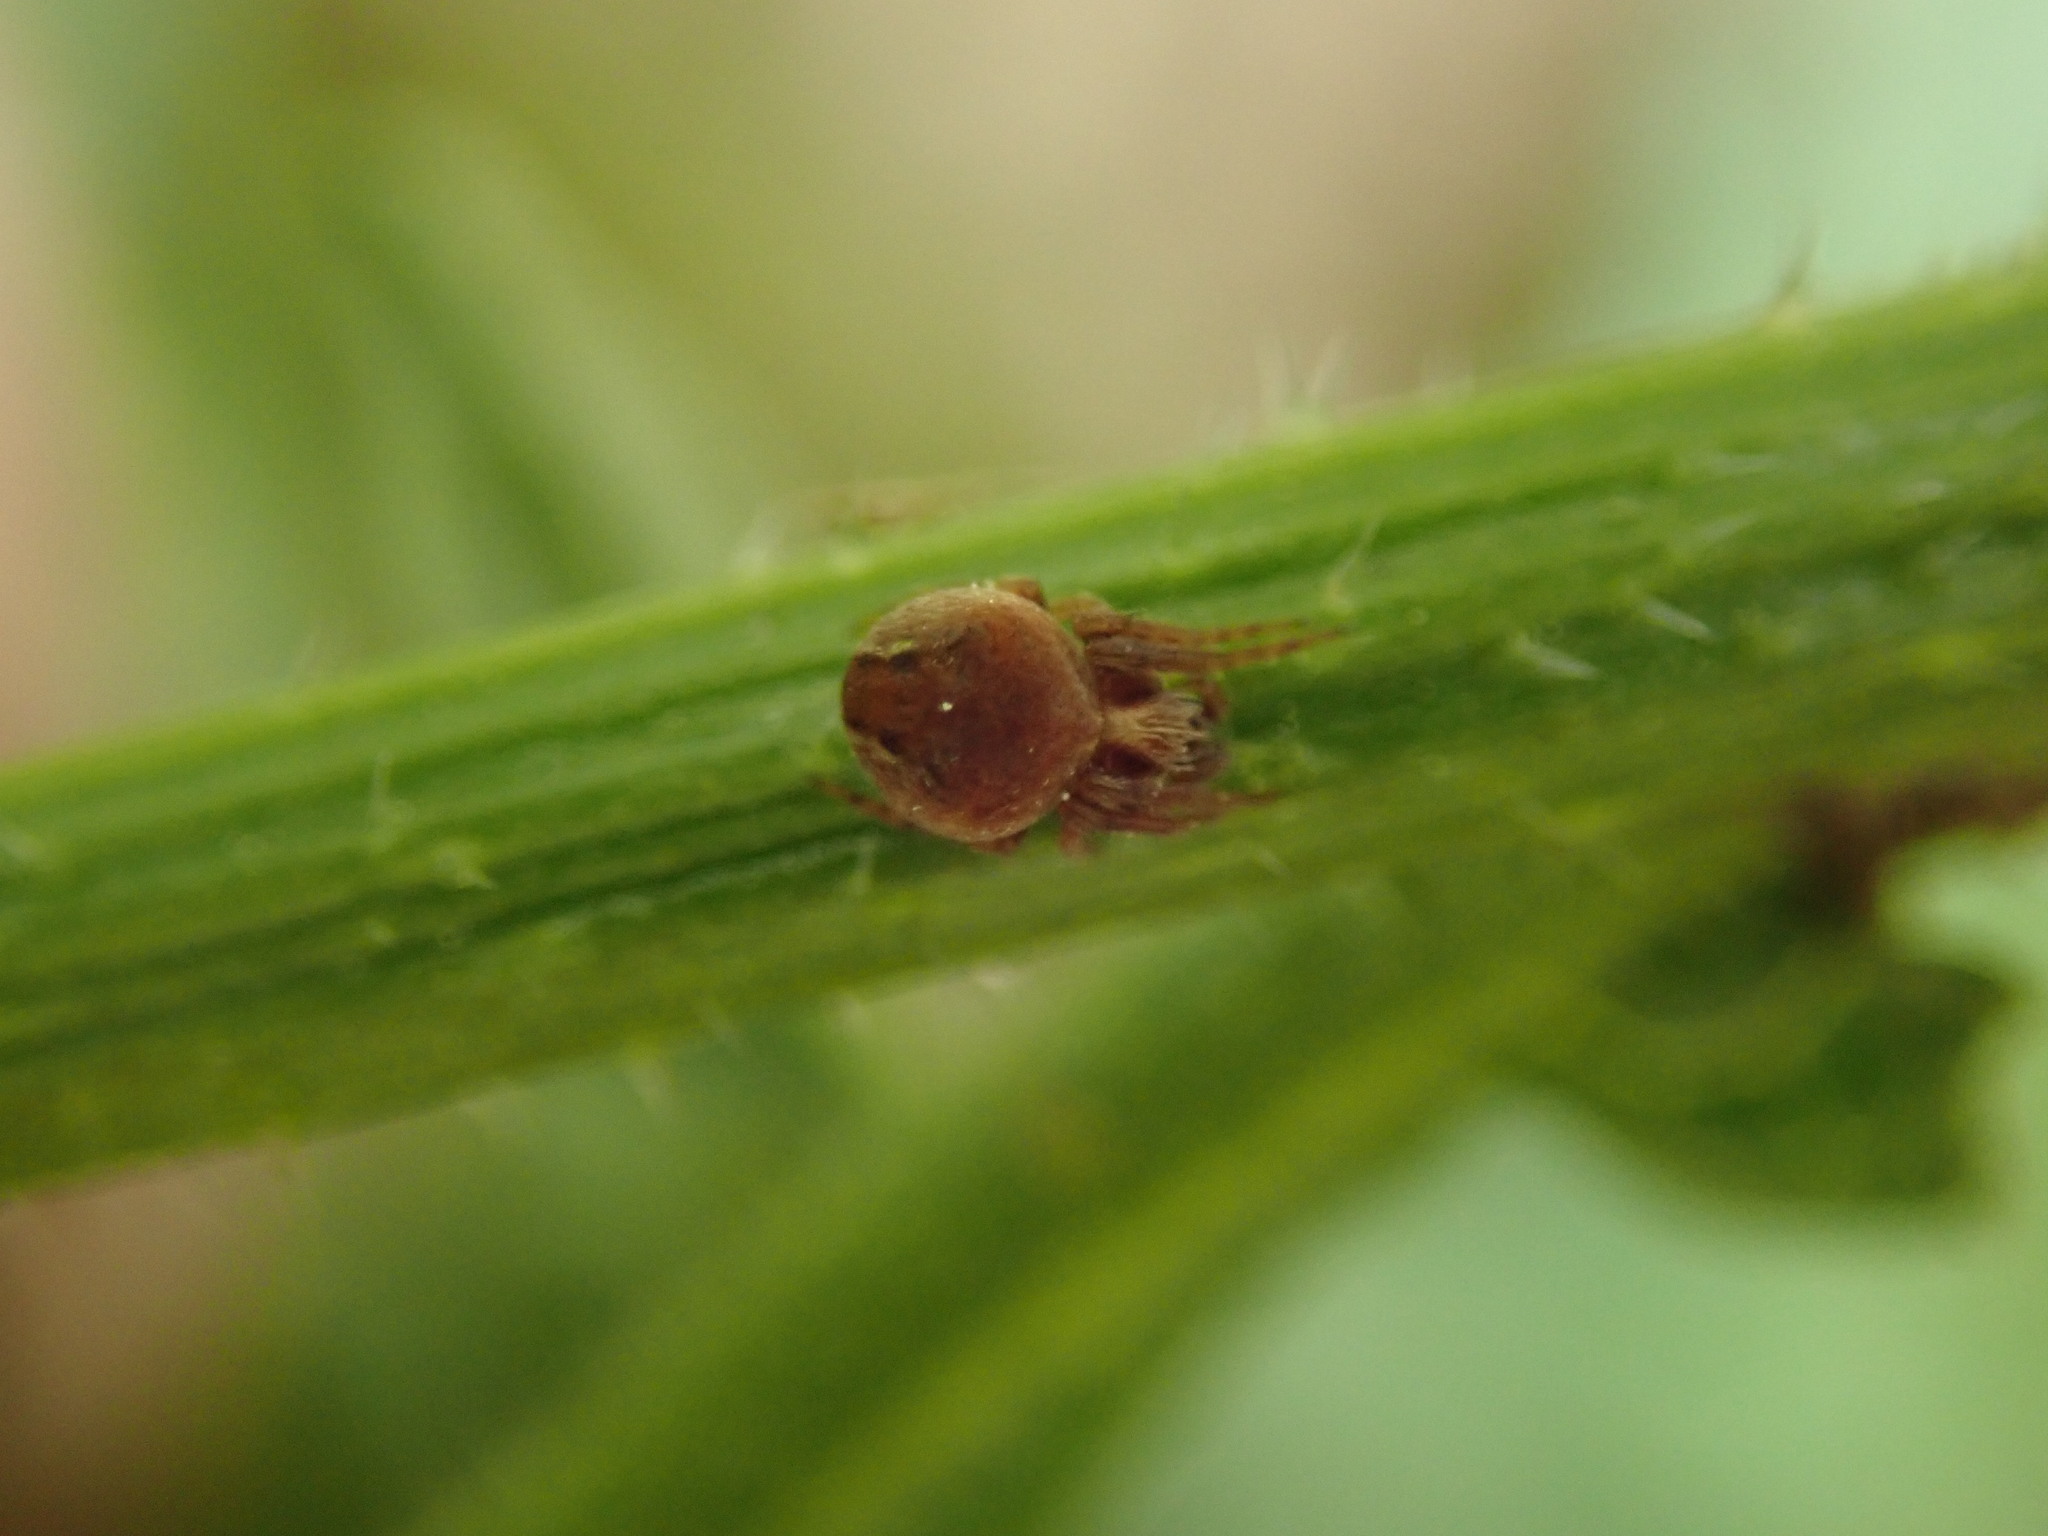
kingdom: Animalia
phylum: Arthropoda
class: Arachnida
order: Araneae
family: Araneidae
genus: Araneus
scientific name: Araneus sturmi
